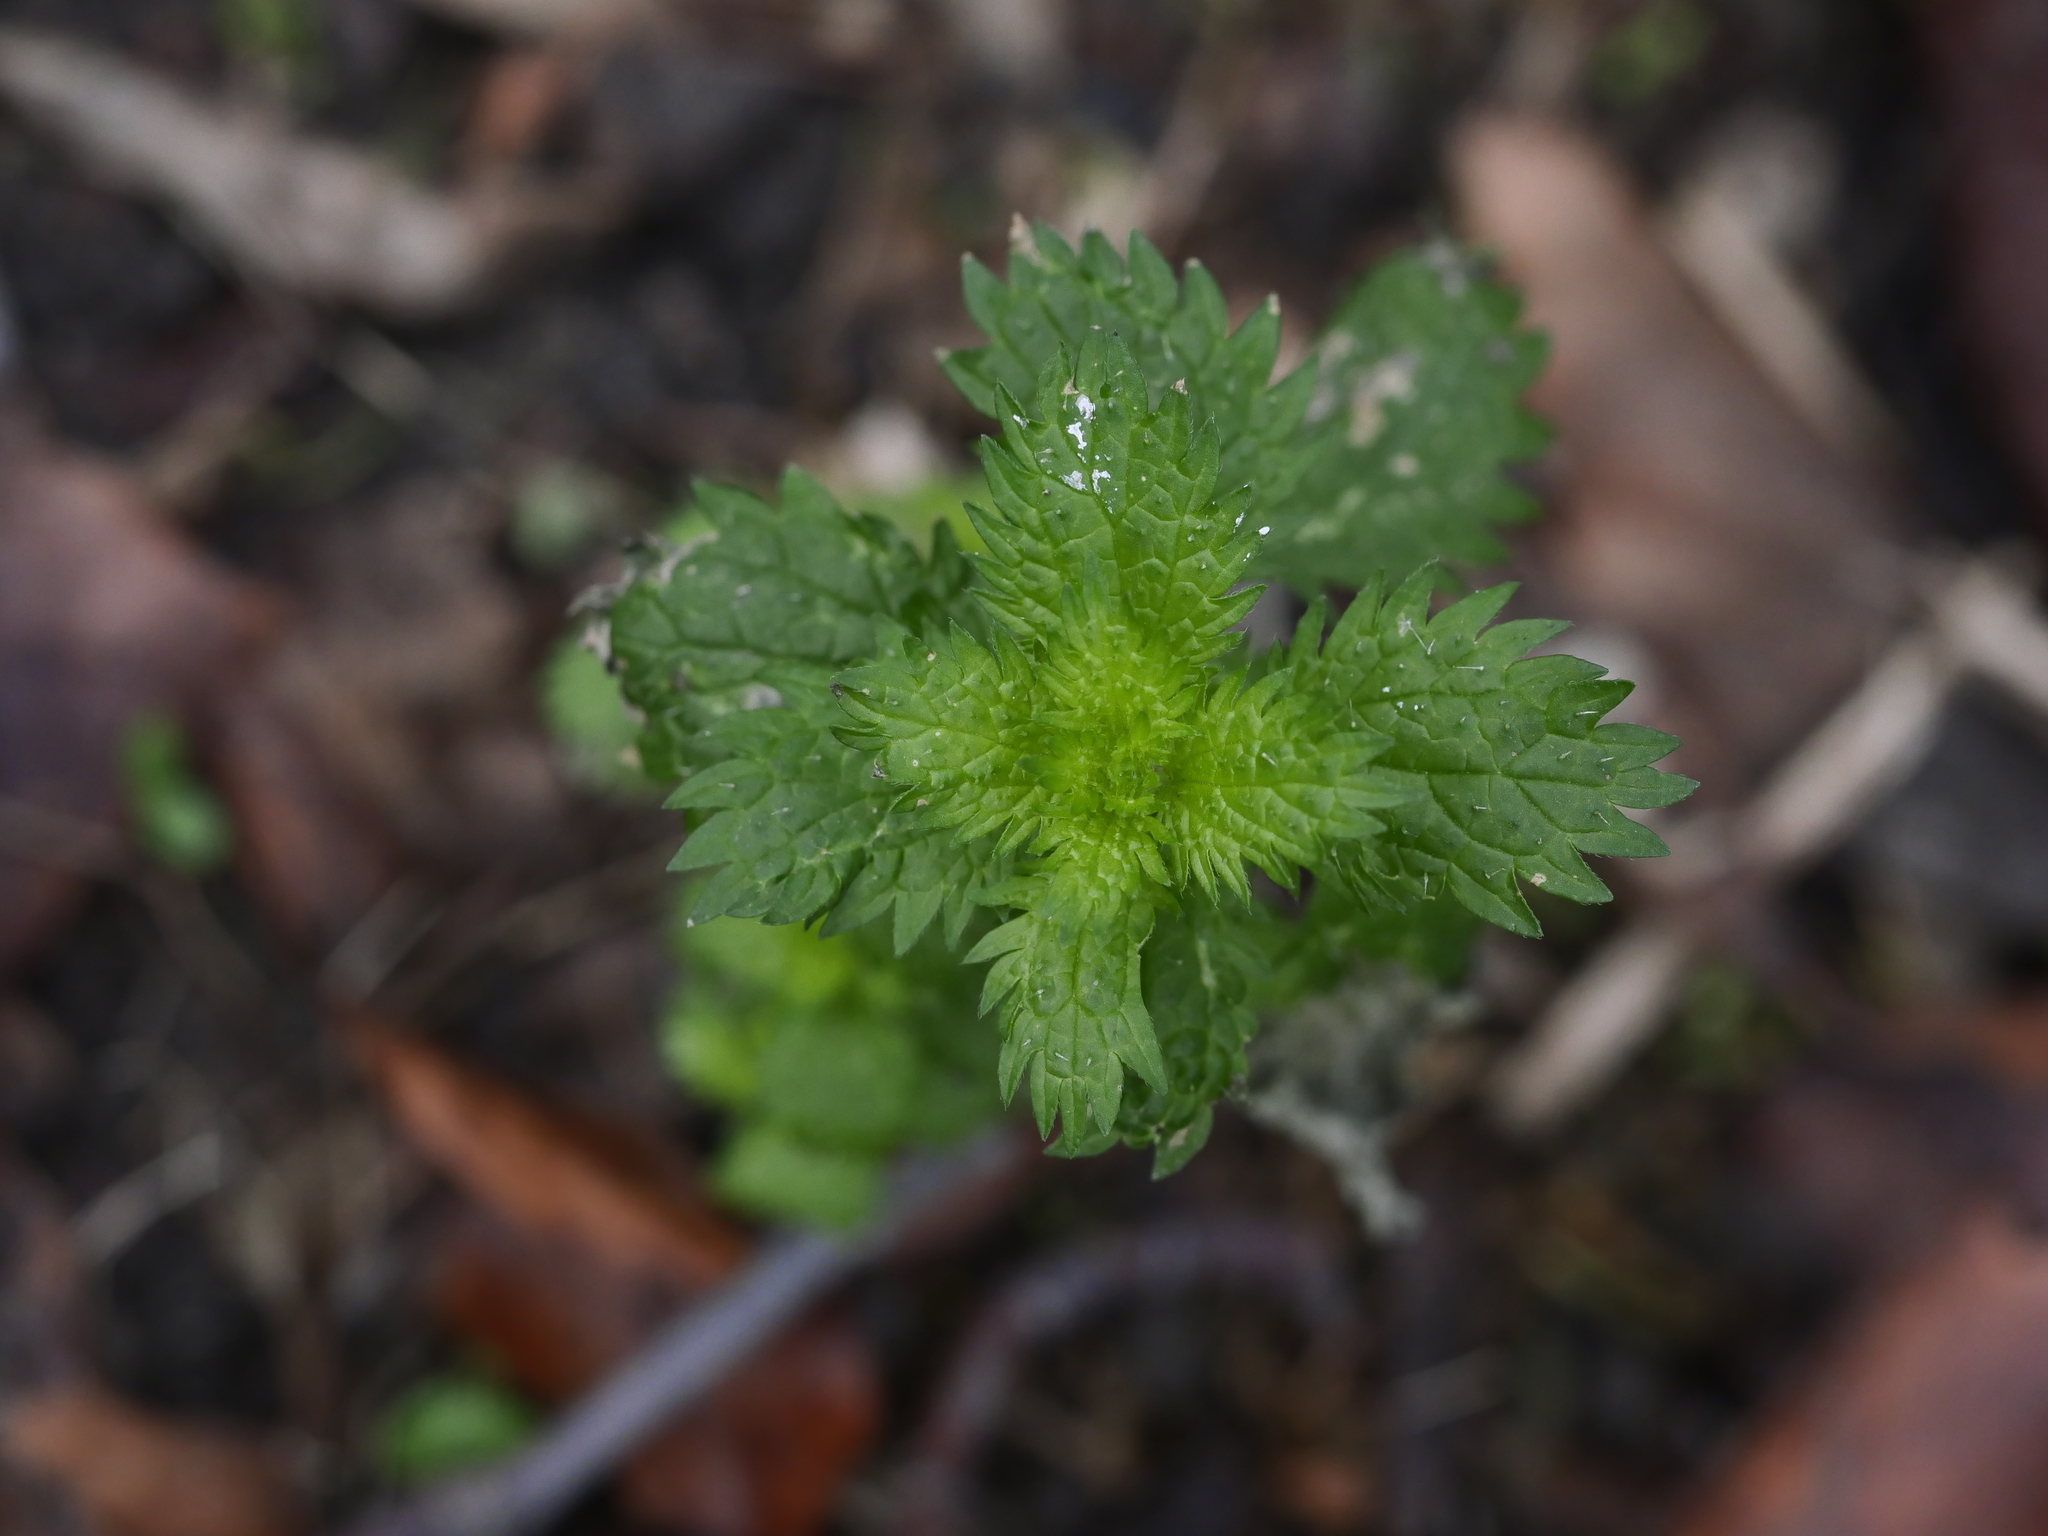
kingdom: Plantae
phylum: Tracheophyta
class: Magnoliopsida
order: Rosales
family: Urticaceae
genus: Urtica
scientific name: Urtica urens
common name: Dwarf nettle
